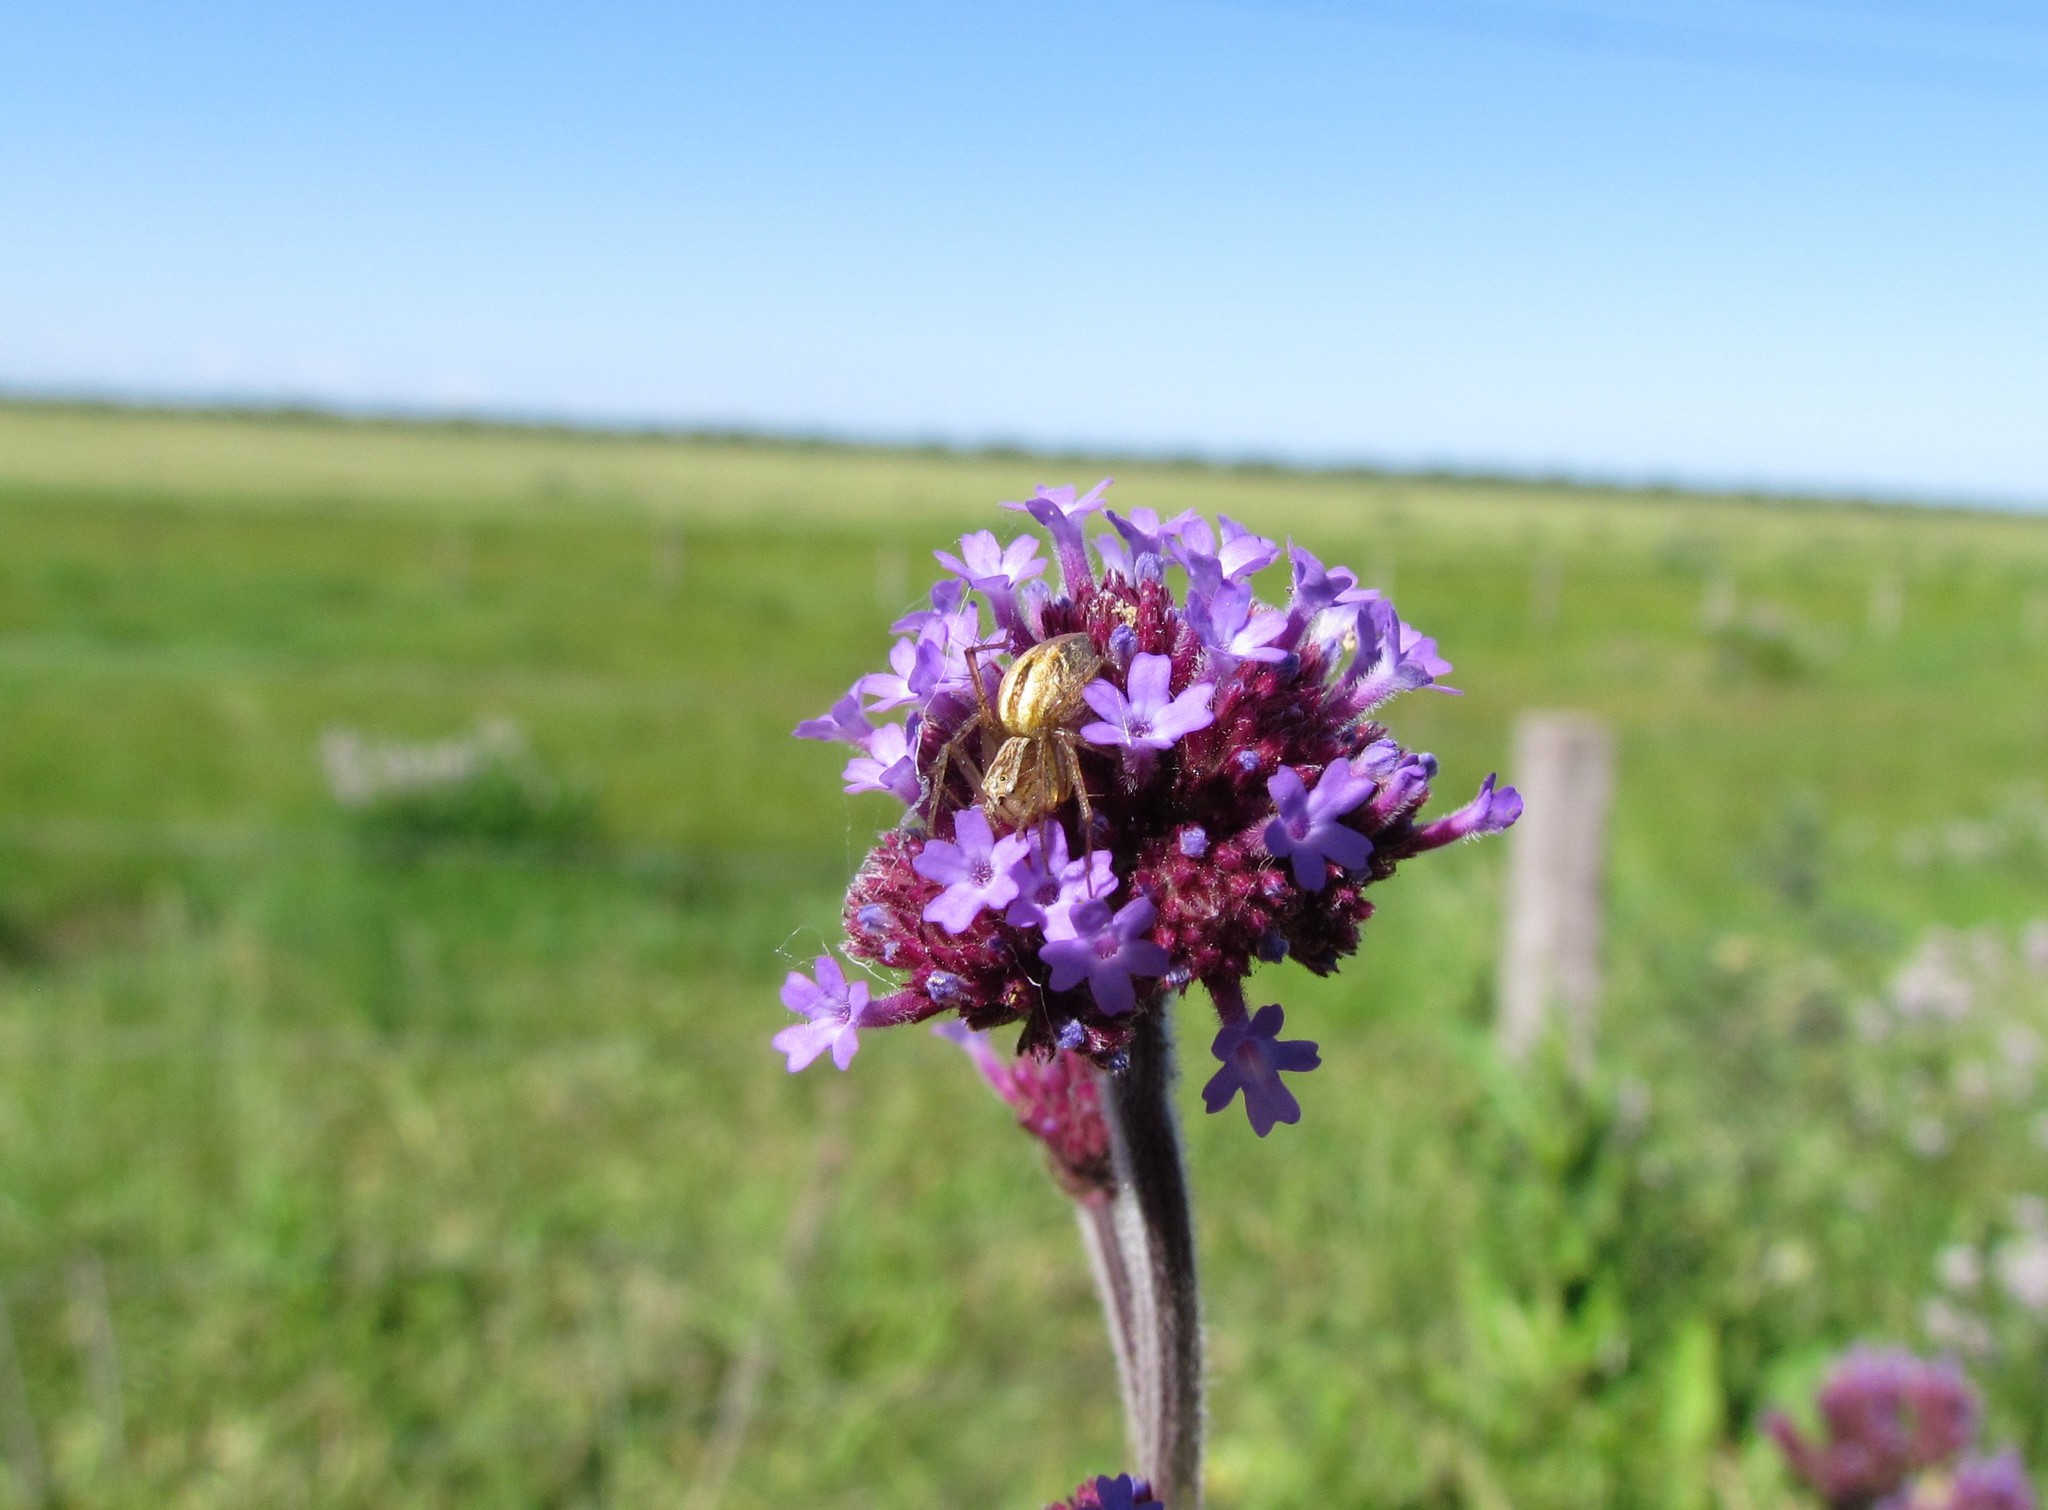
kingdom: Animalia
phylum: Arthropoda
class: Arachnida
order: Araneae
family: Oxyopidae
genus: Oxyopes
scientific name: Oxyopes salticus
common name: Lynx spiders
